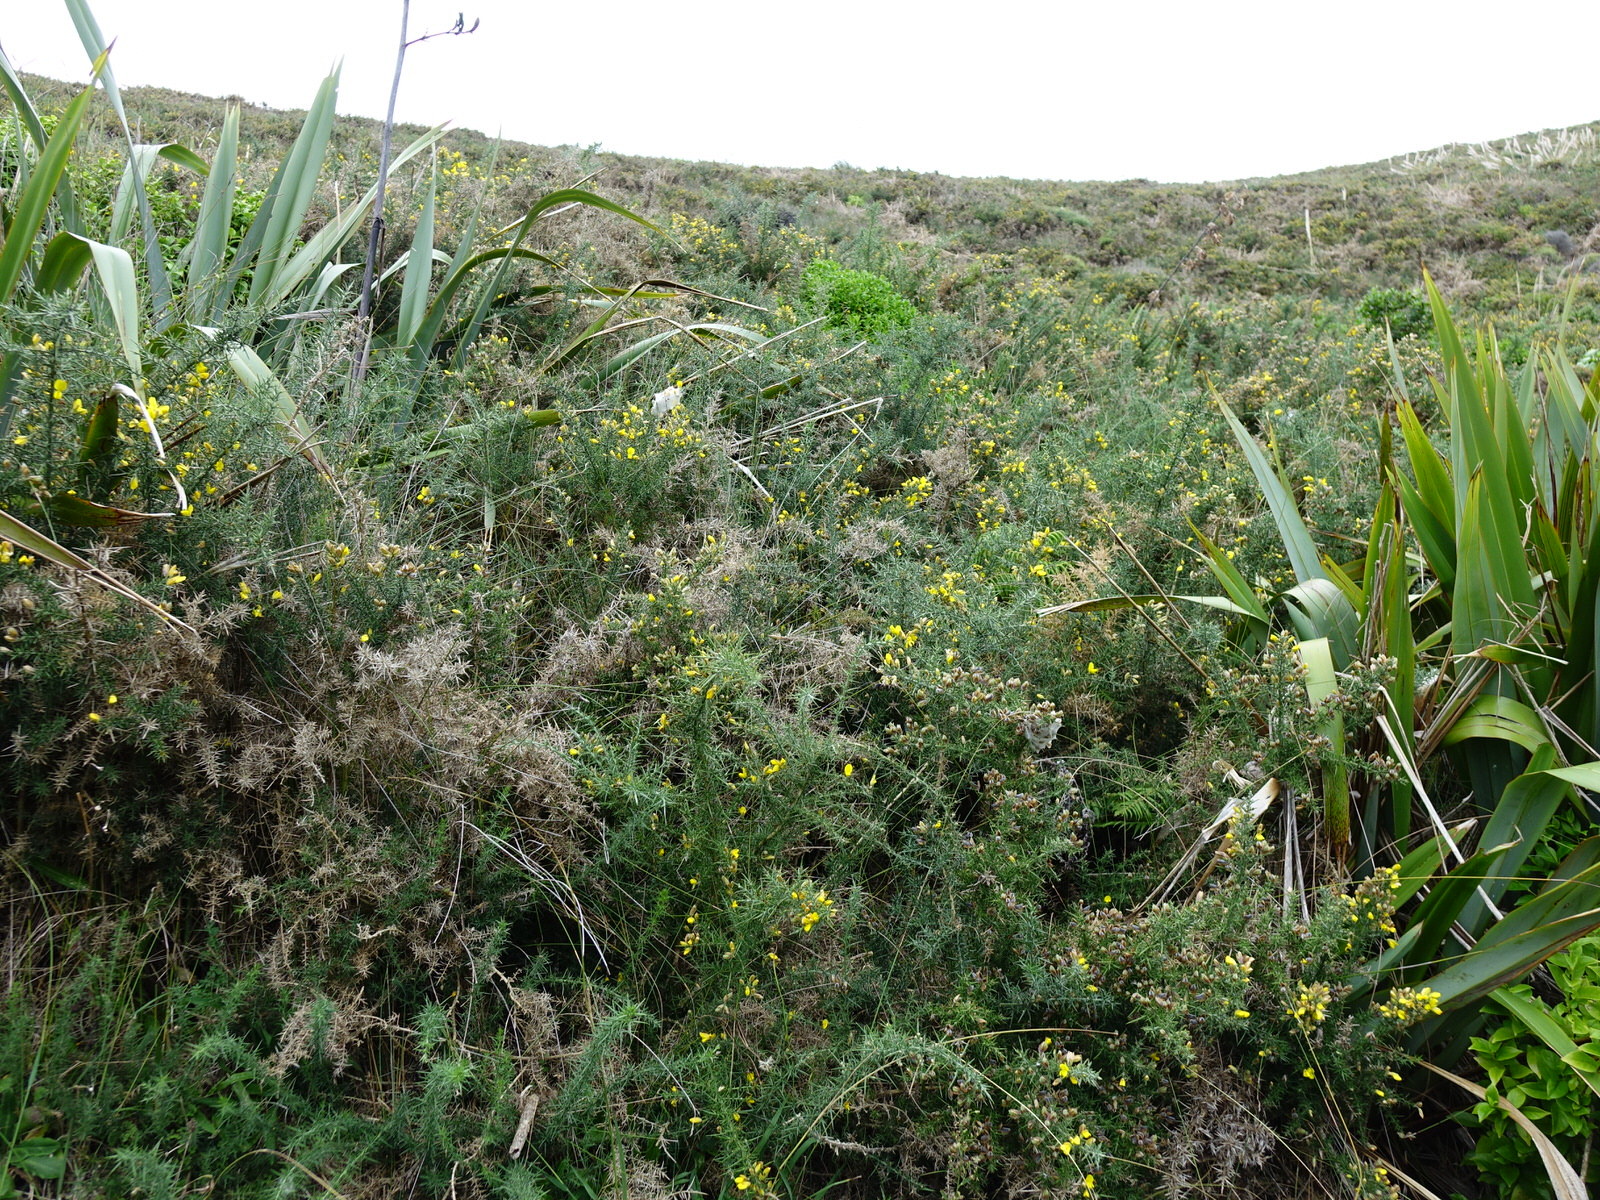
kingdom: Plantae
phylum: Tracheophyta
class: Magnoliopsida
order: Fabales
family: Fabaceae
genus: Ulex
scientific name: Ulex europaeus
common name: Common gorse
